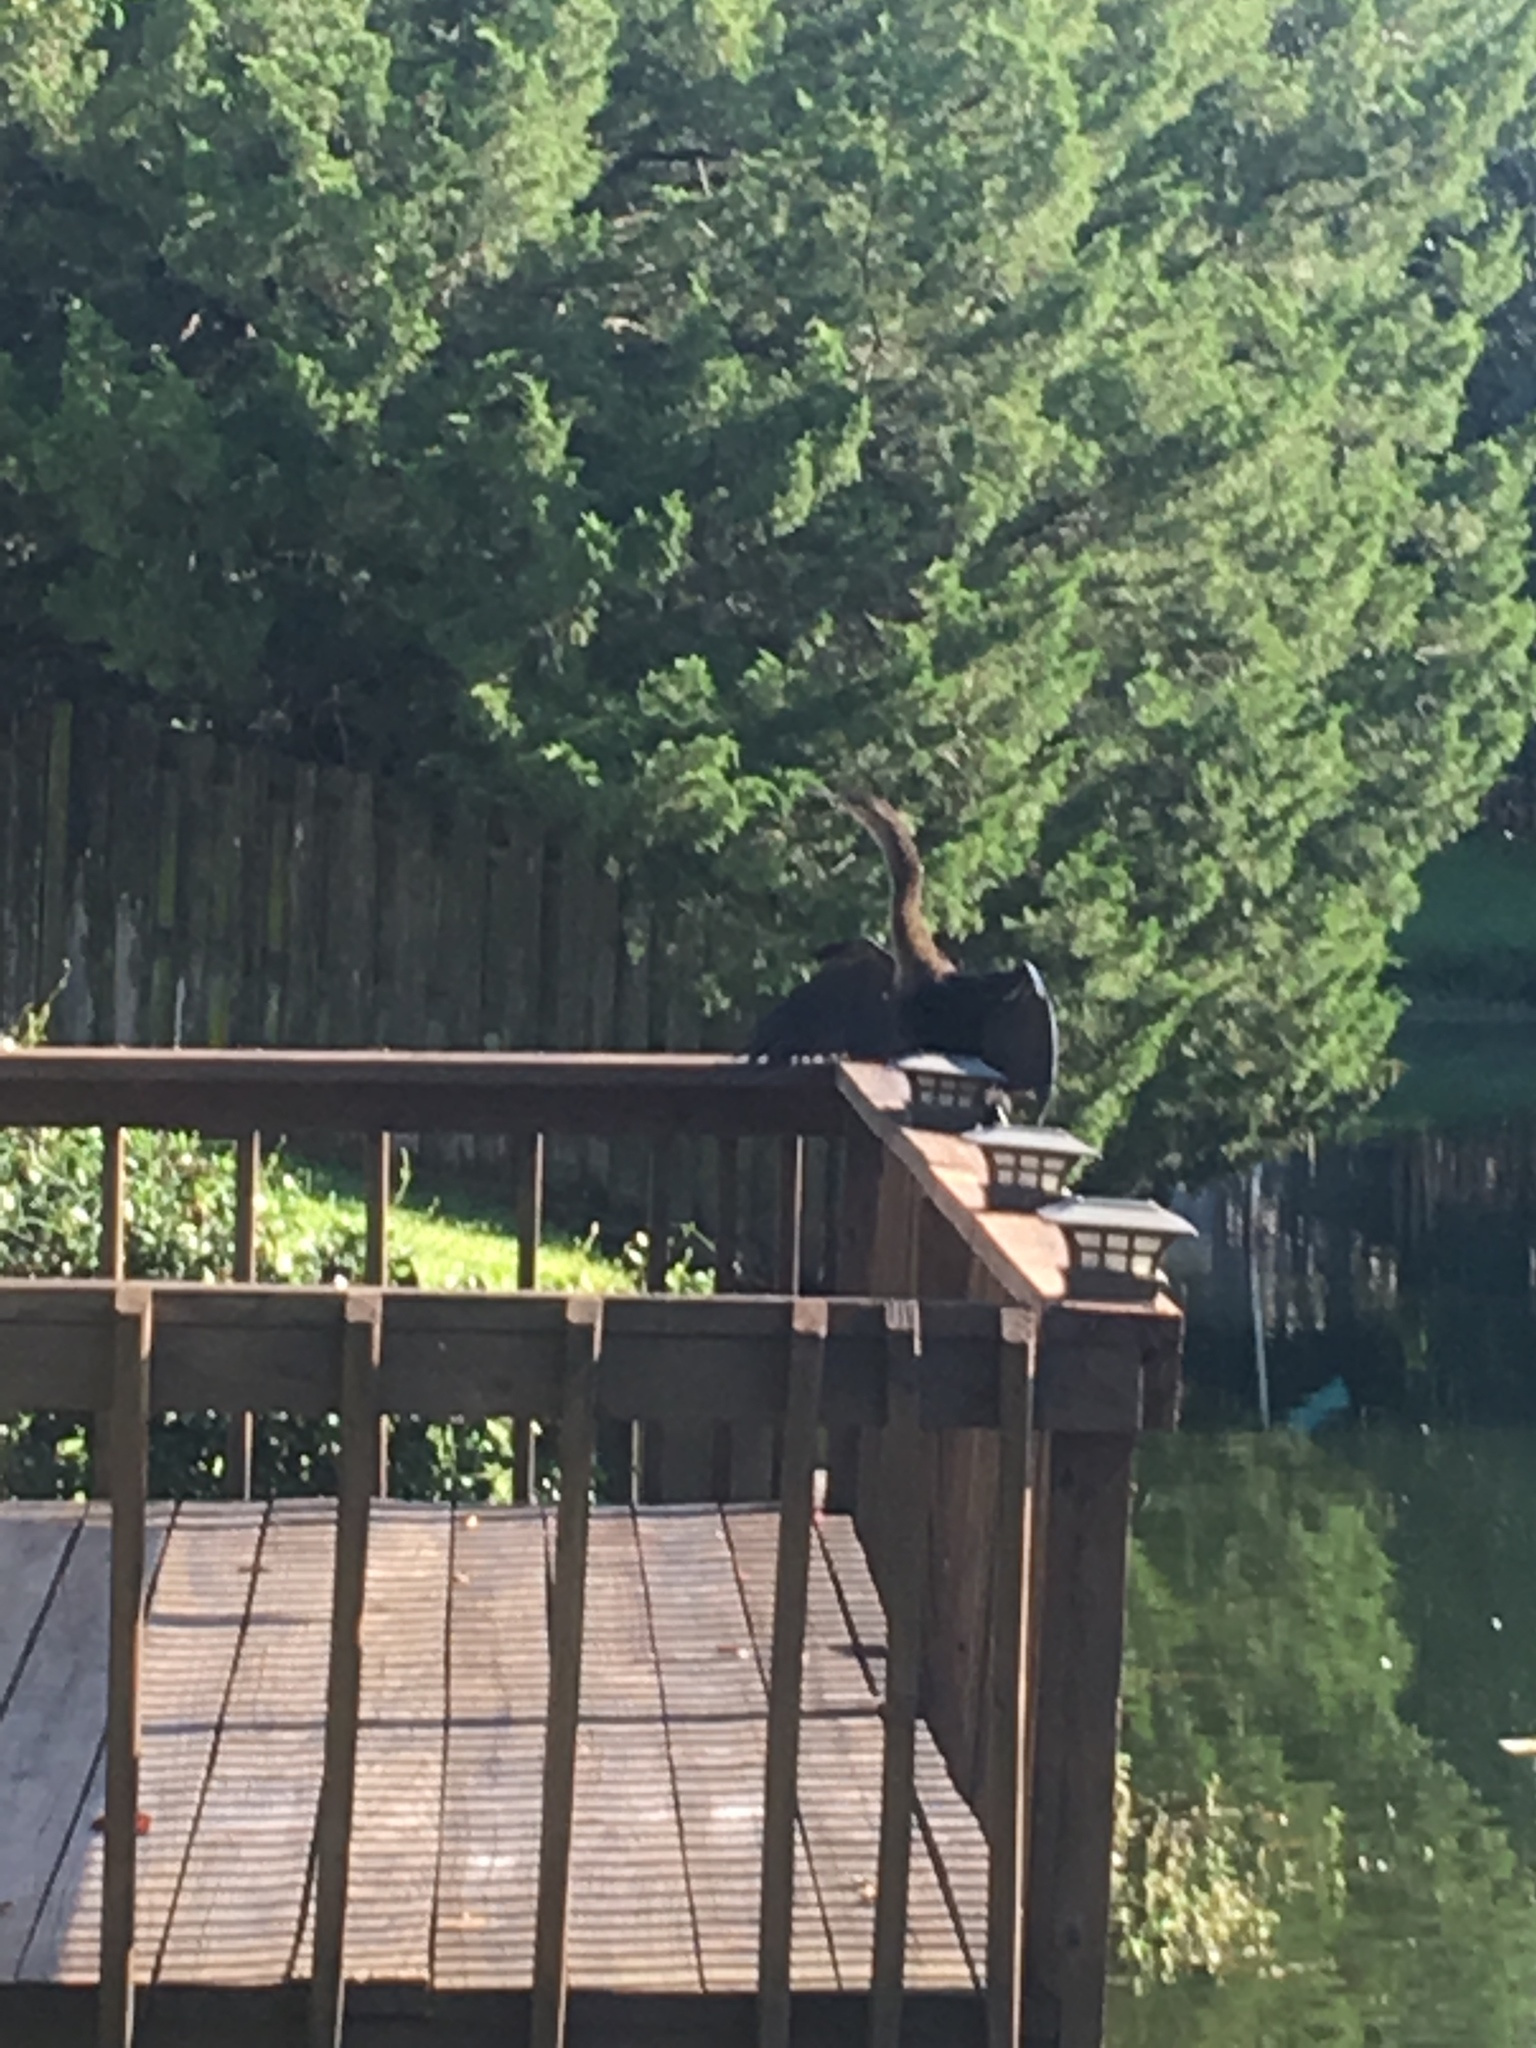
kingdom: Animalia
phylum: Chordata
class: Aves
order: Suliformes
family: Anhingidae
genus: Anhinga
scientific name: Anhinga anhinga
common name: Anhinga
